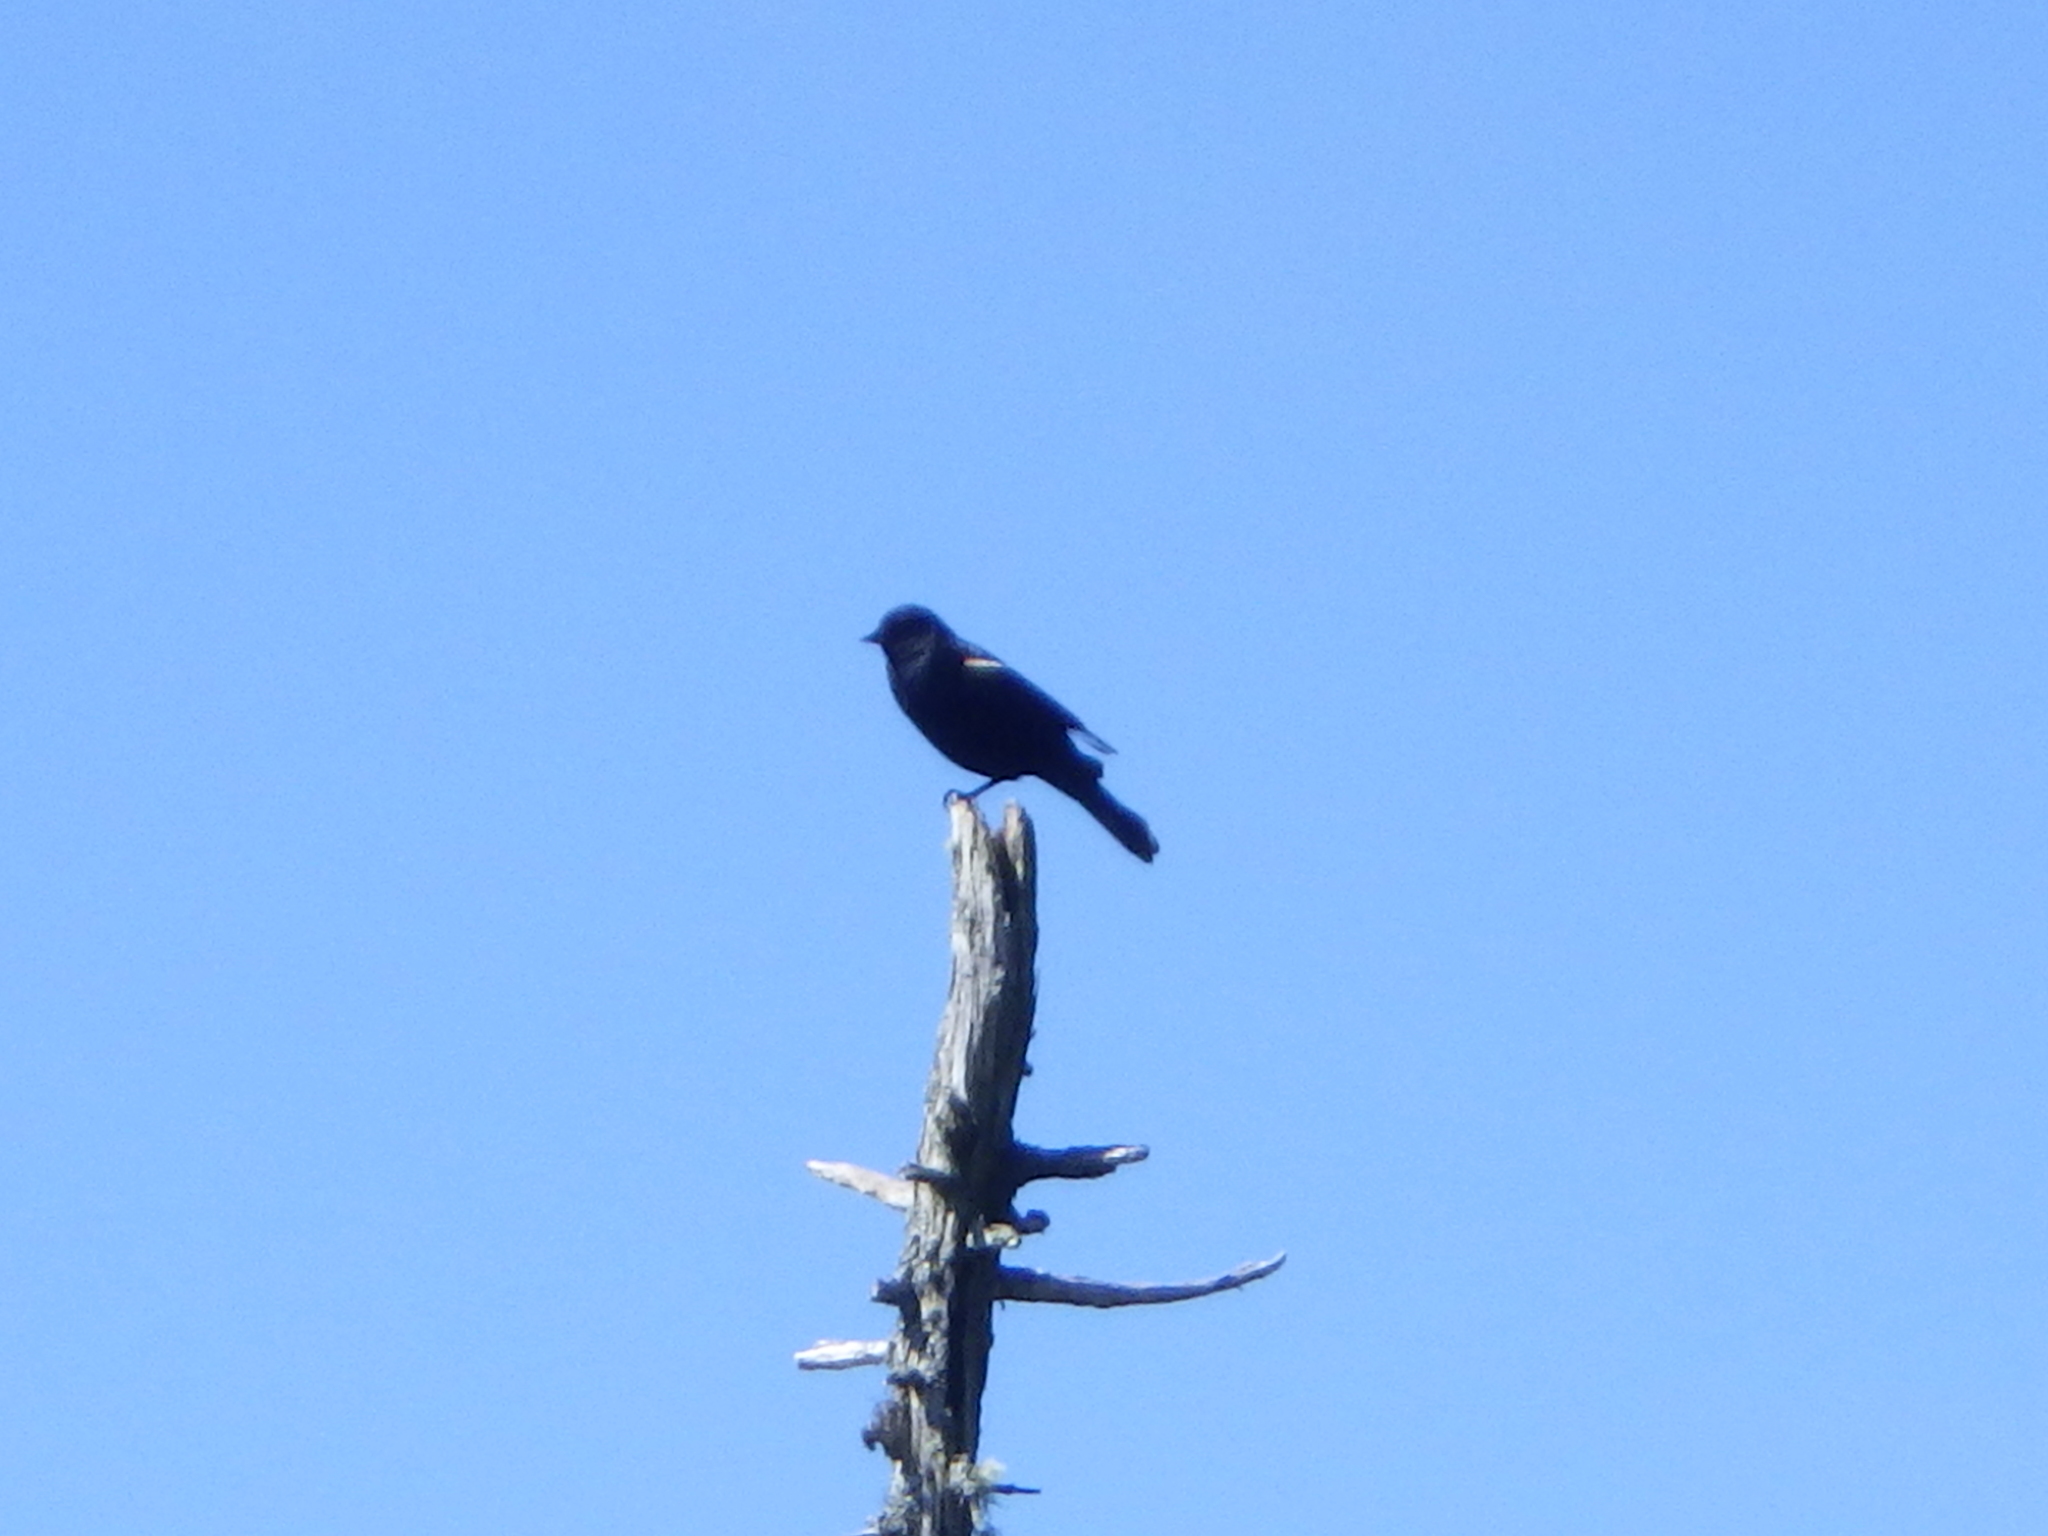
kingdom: Animalia
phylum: Chordata
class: Aves
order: Passeriformes
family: Icteridae
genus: Agelaius
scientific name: Agelaius phoeniceus
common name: Red-winged blackbird
